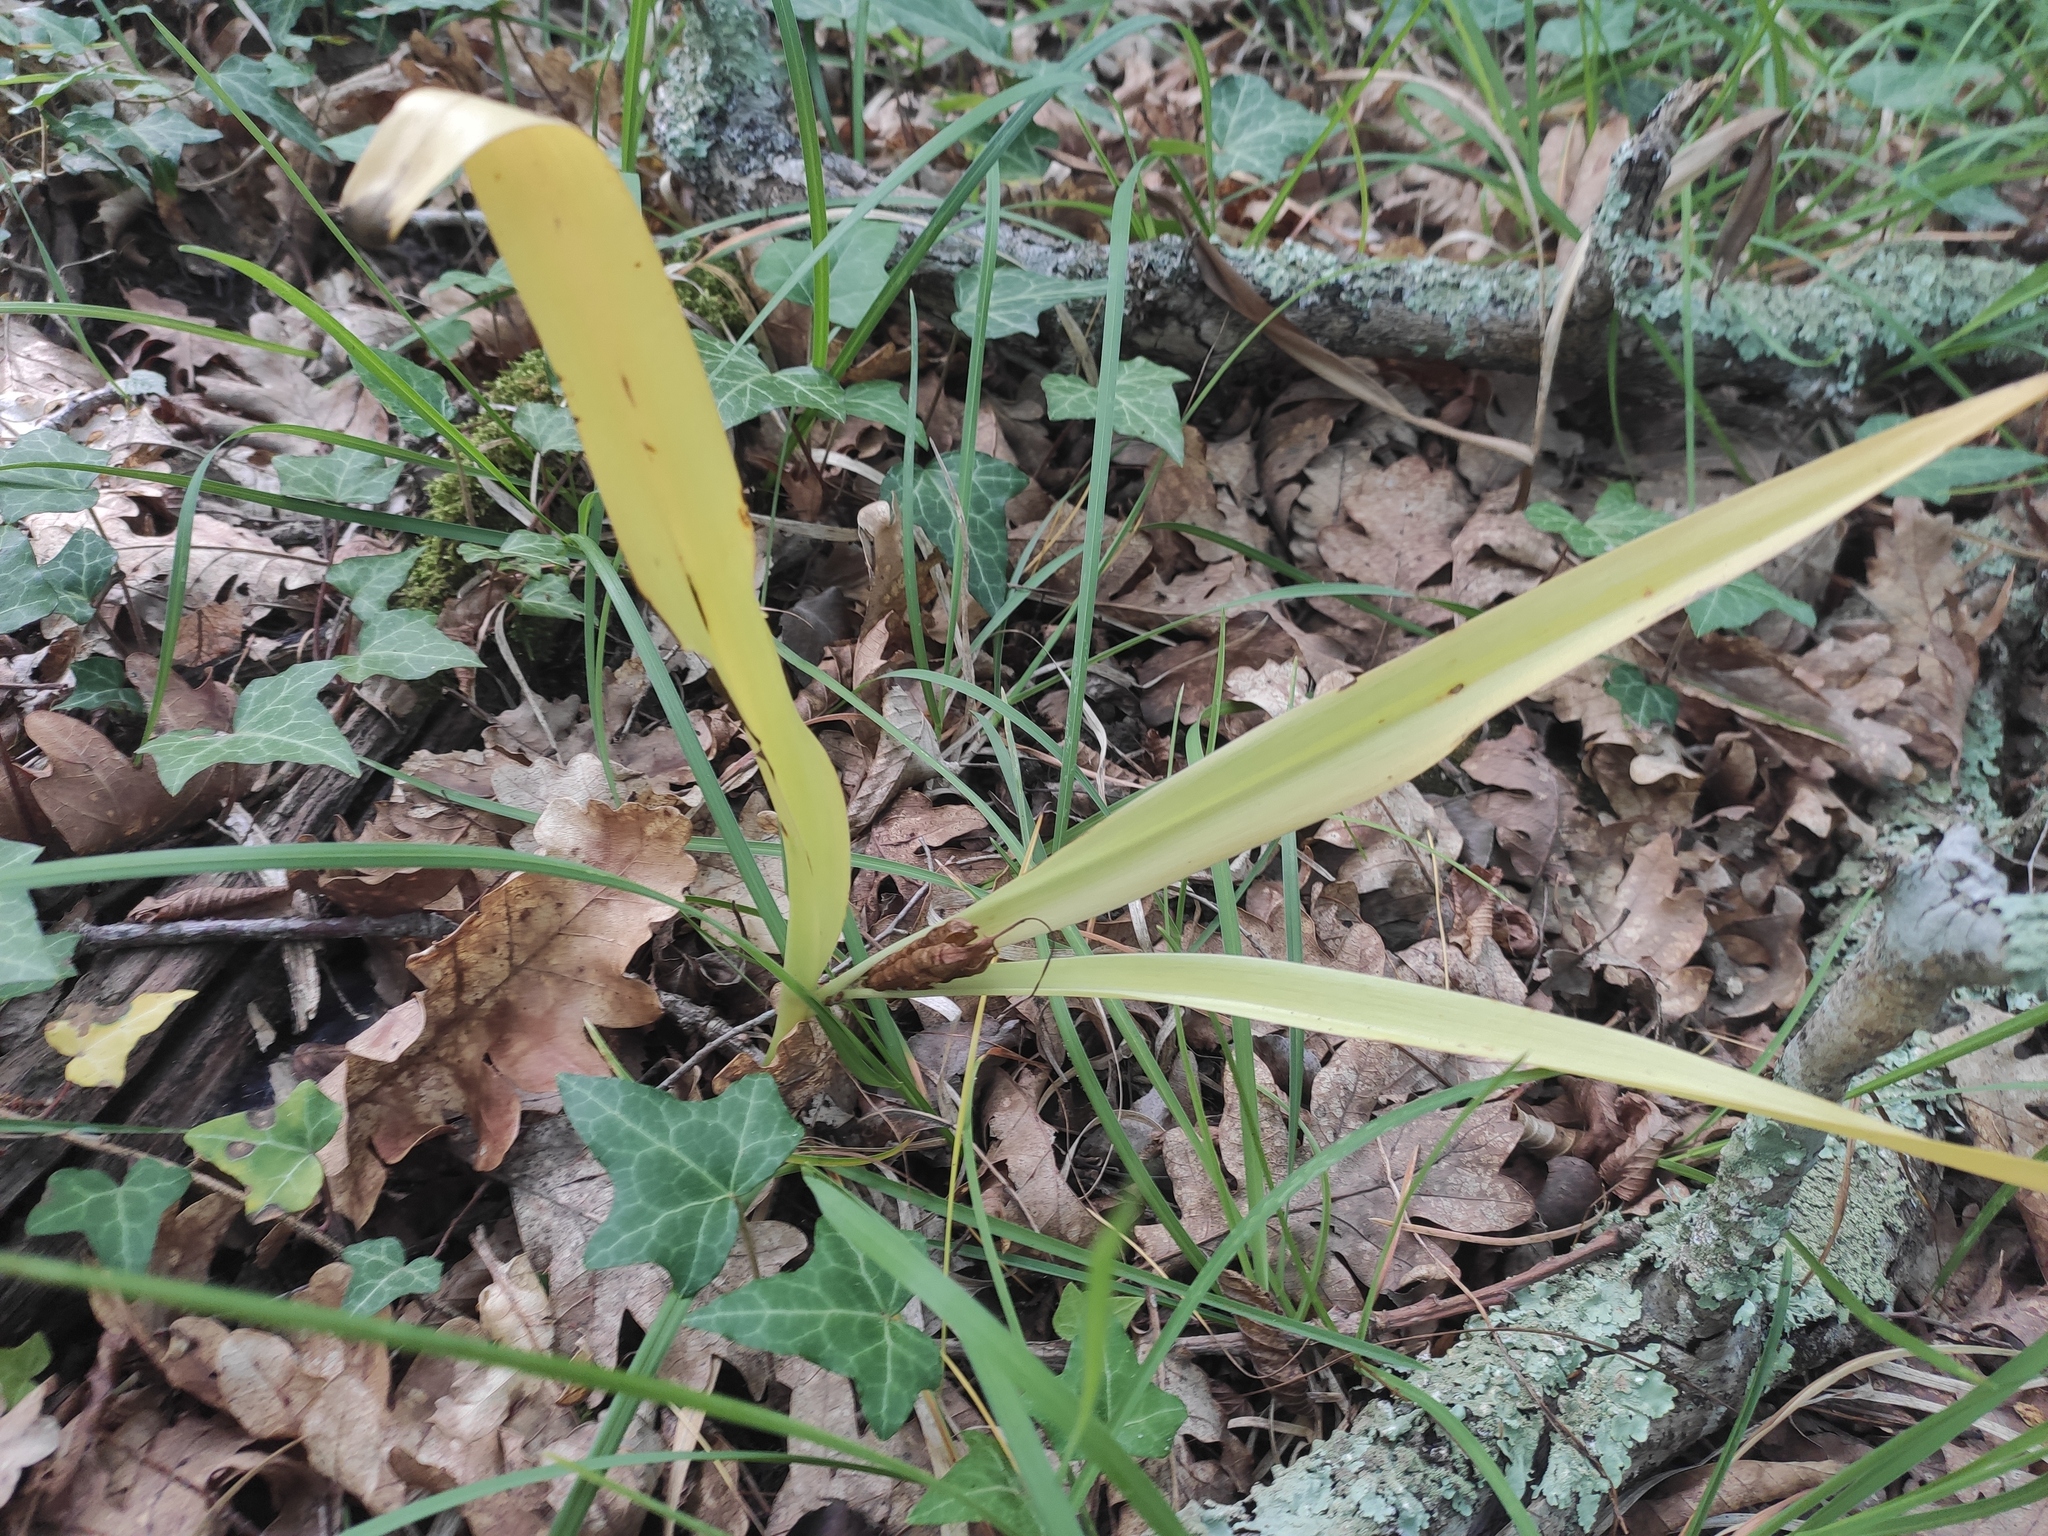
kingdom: Plantae
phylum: Tracheophyta
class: Liliopsida
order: Liliales
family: Colchicaceae
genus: Colchicum
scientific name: Colchicum umbrosum
